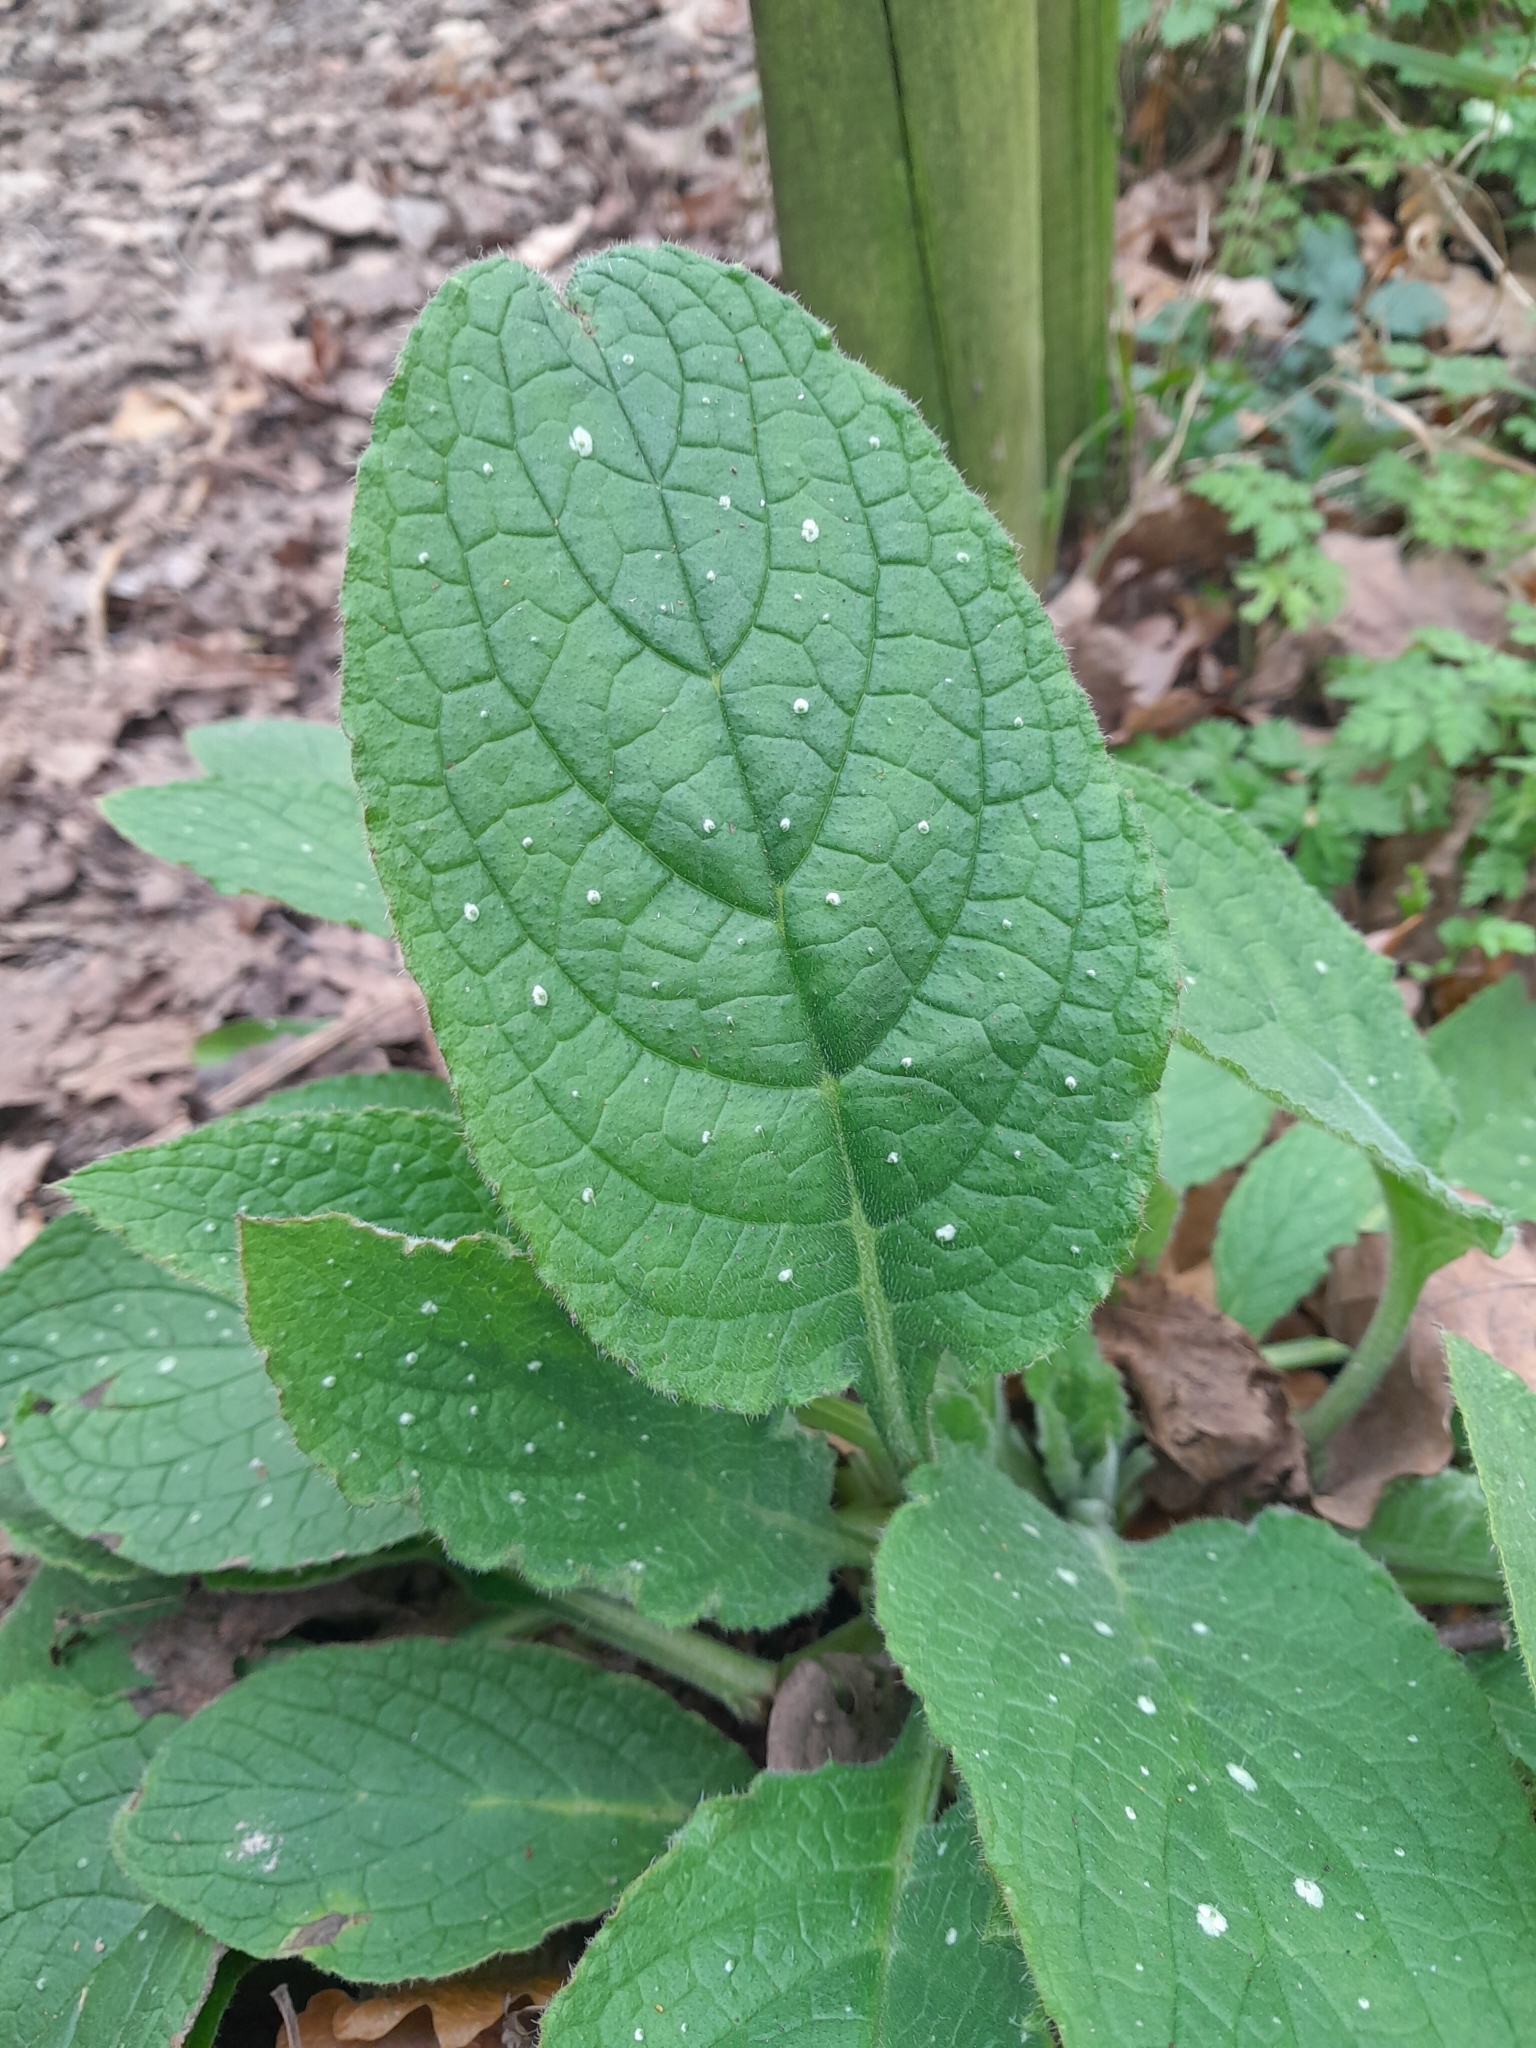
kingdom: Plantae
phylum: Tracheophyta
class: Magnoliopsida
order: Boraginales
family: Boraginaceae
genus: Pentaglottis
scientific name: Pentaglottis sempervirens
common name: Green alkanet
